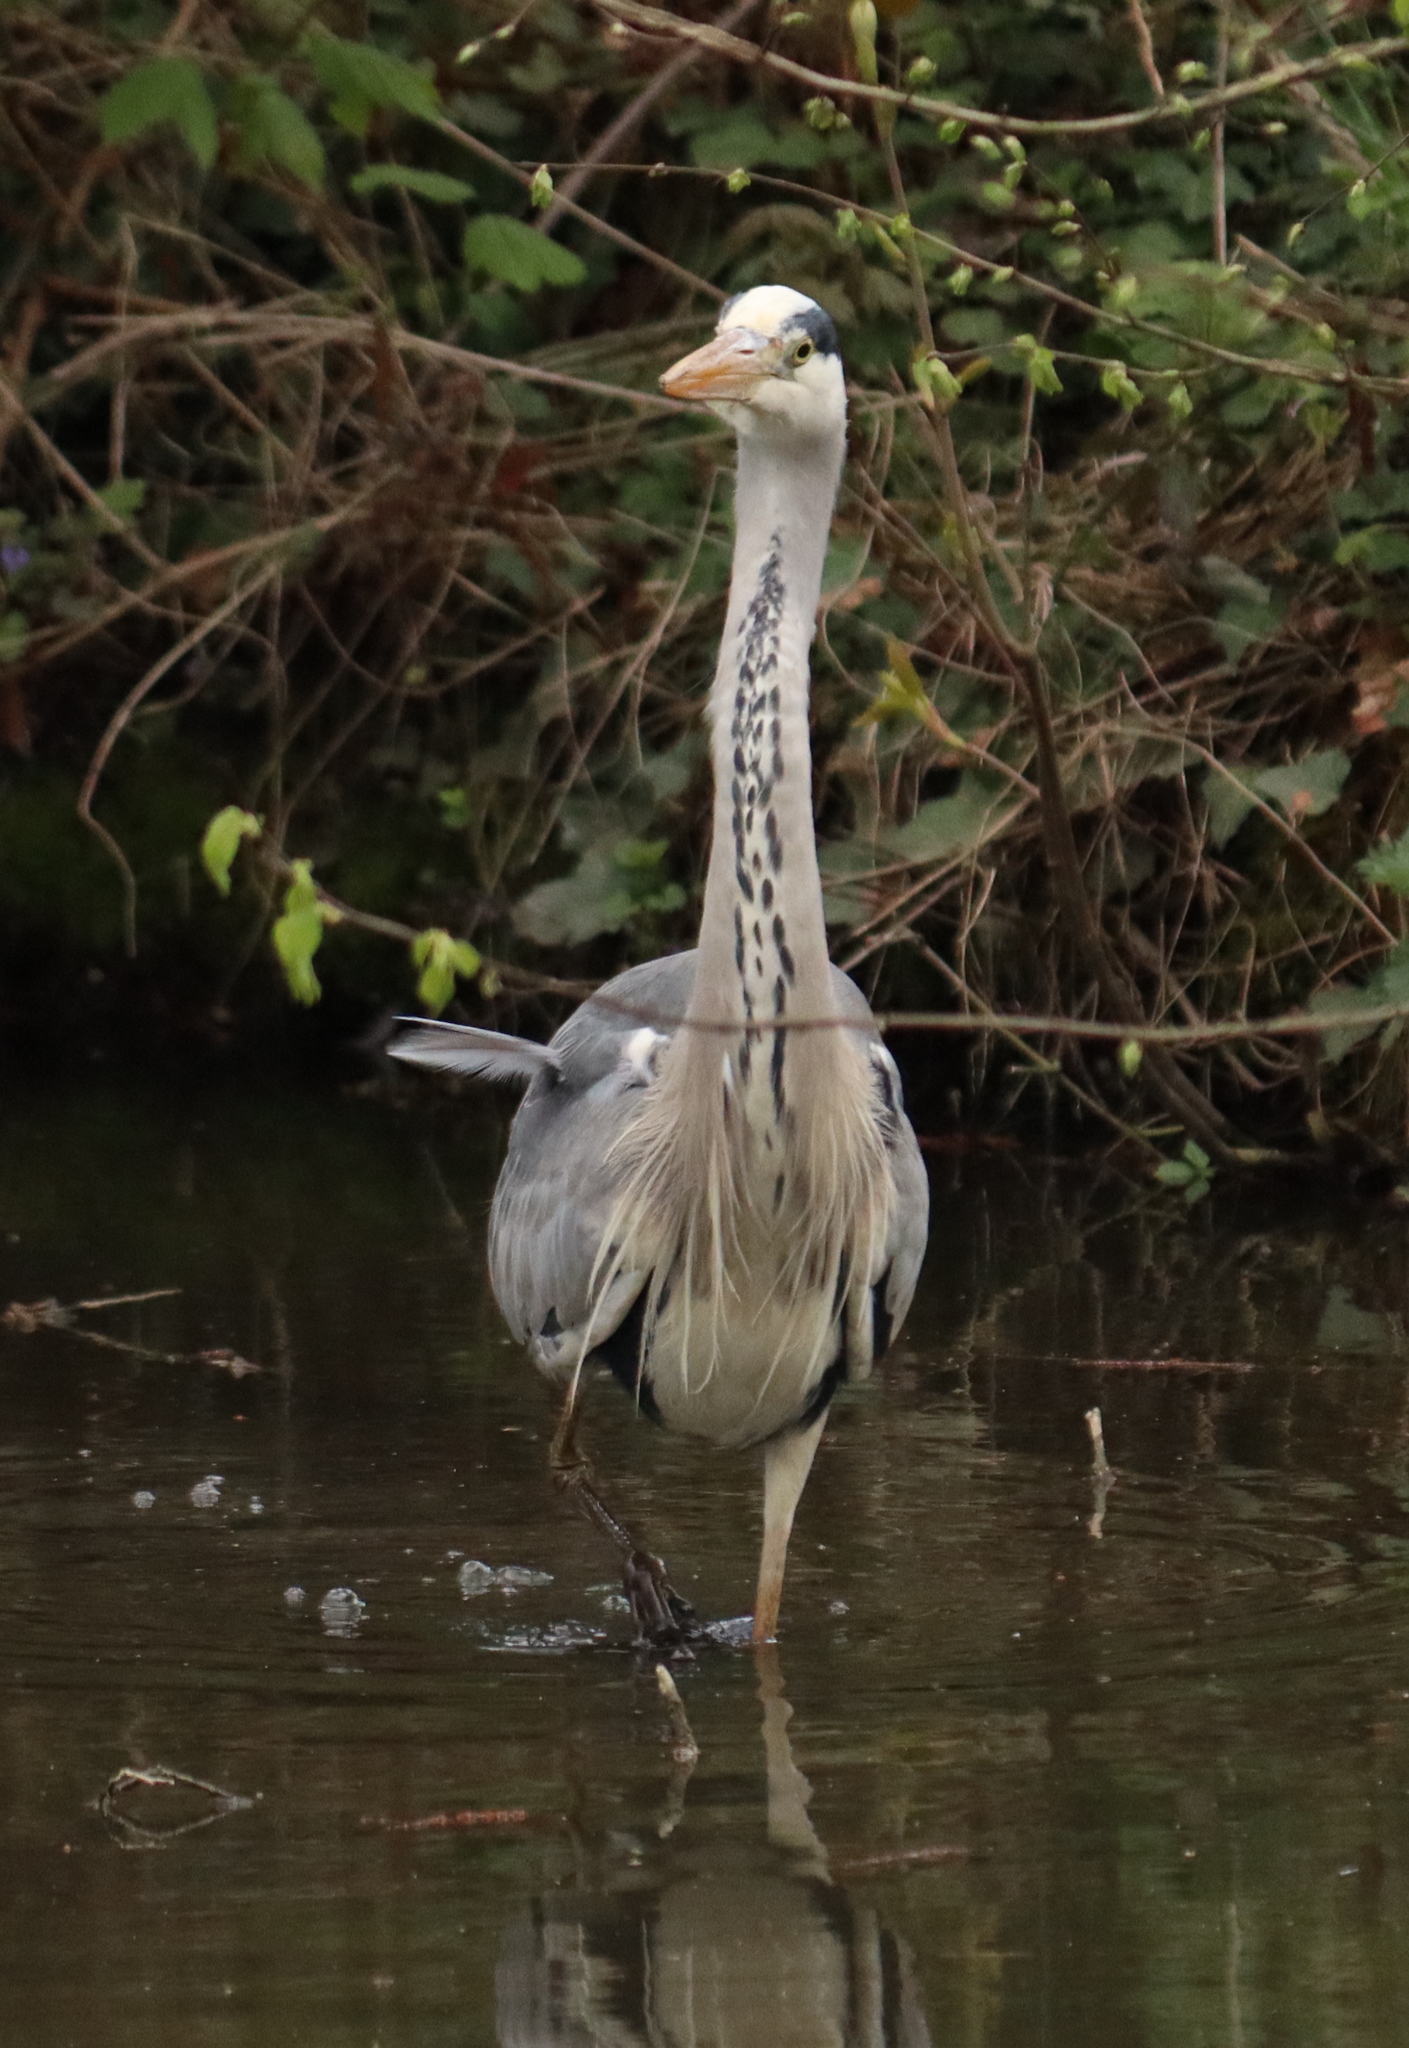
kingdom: Animalia
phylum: Chordata
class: Aves
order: Pelecaniformes
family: Ardeidae
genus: Ardea
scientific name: Ardea cinerea
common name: Grey heron
